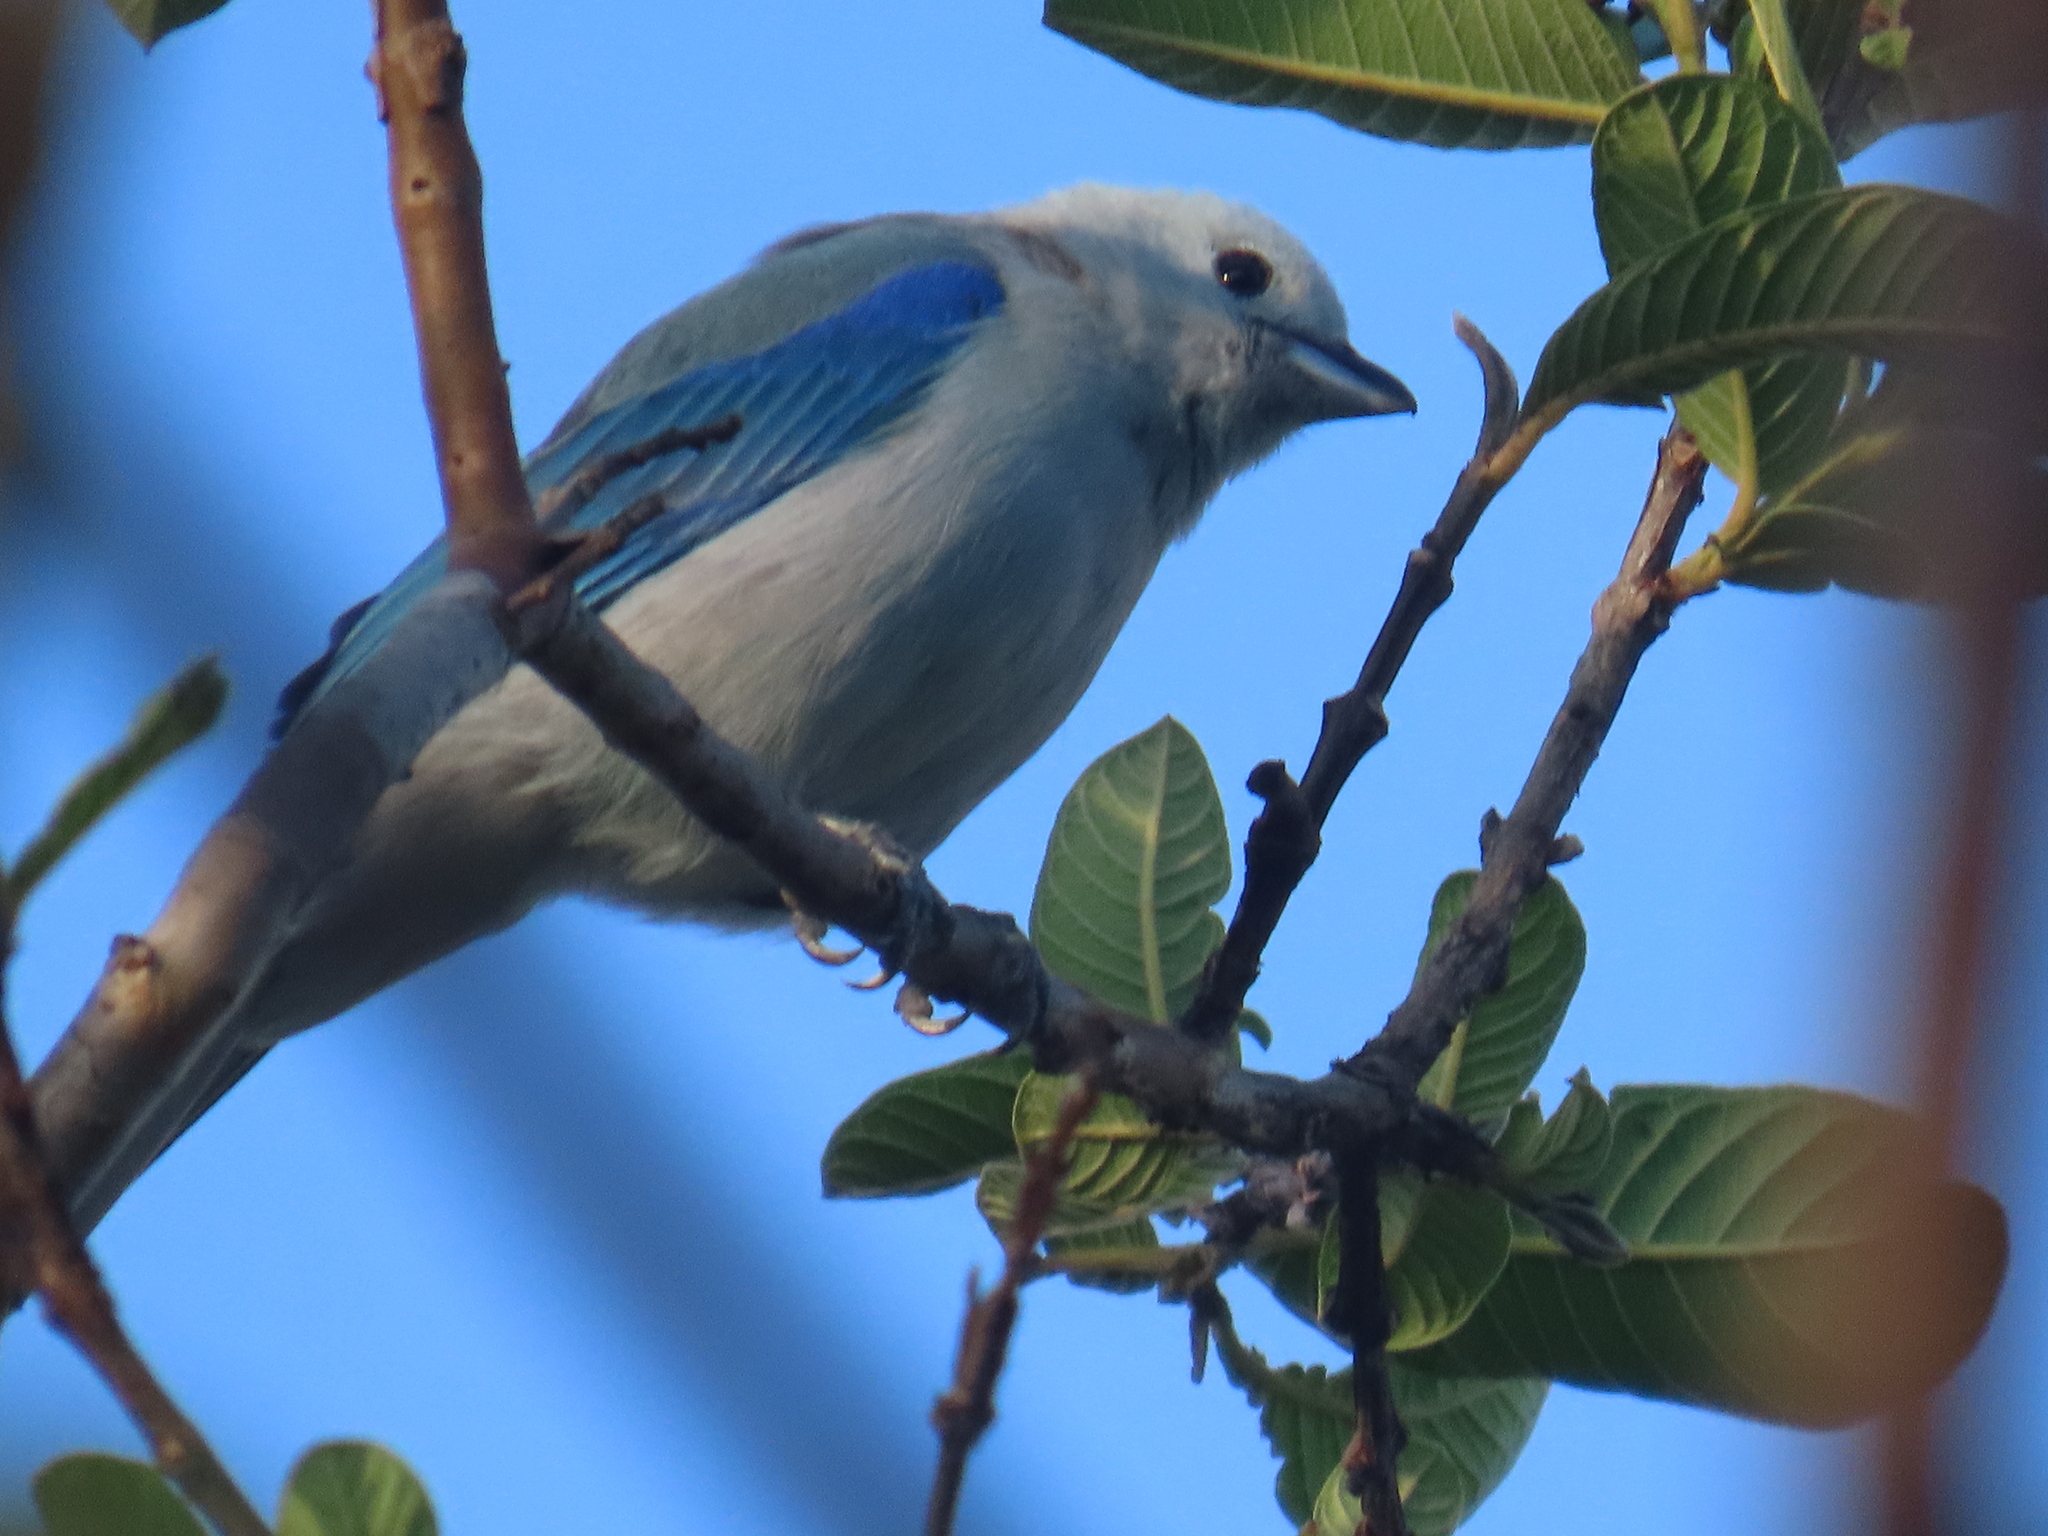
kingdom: Animalia
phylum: Chordata
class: Aves
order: Passeriformes
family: Thraupidae
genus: Thraupis
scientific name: Thraupis episcopus
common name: Blue-grey tanager
